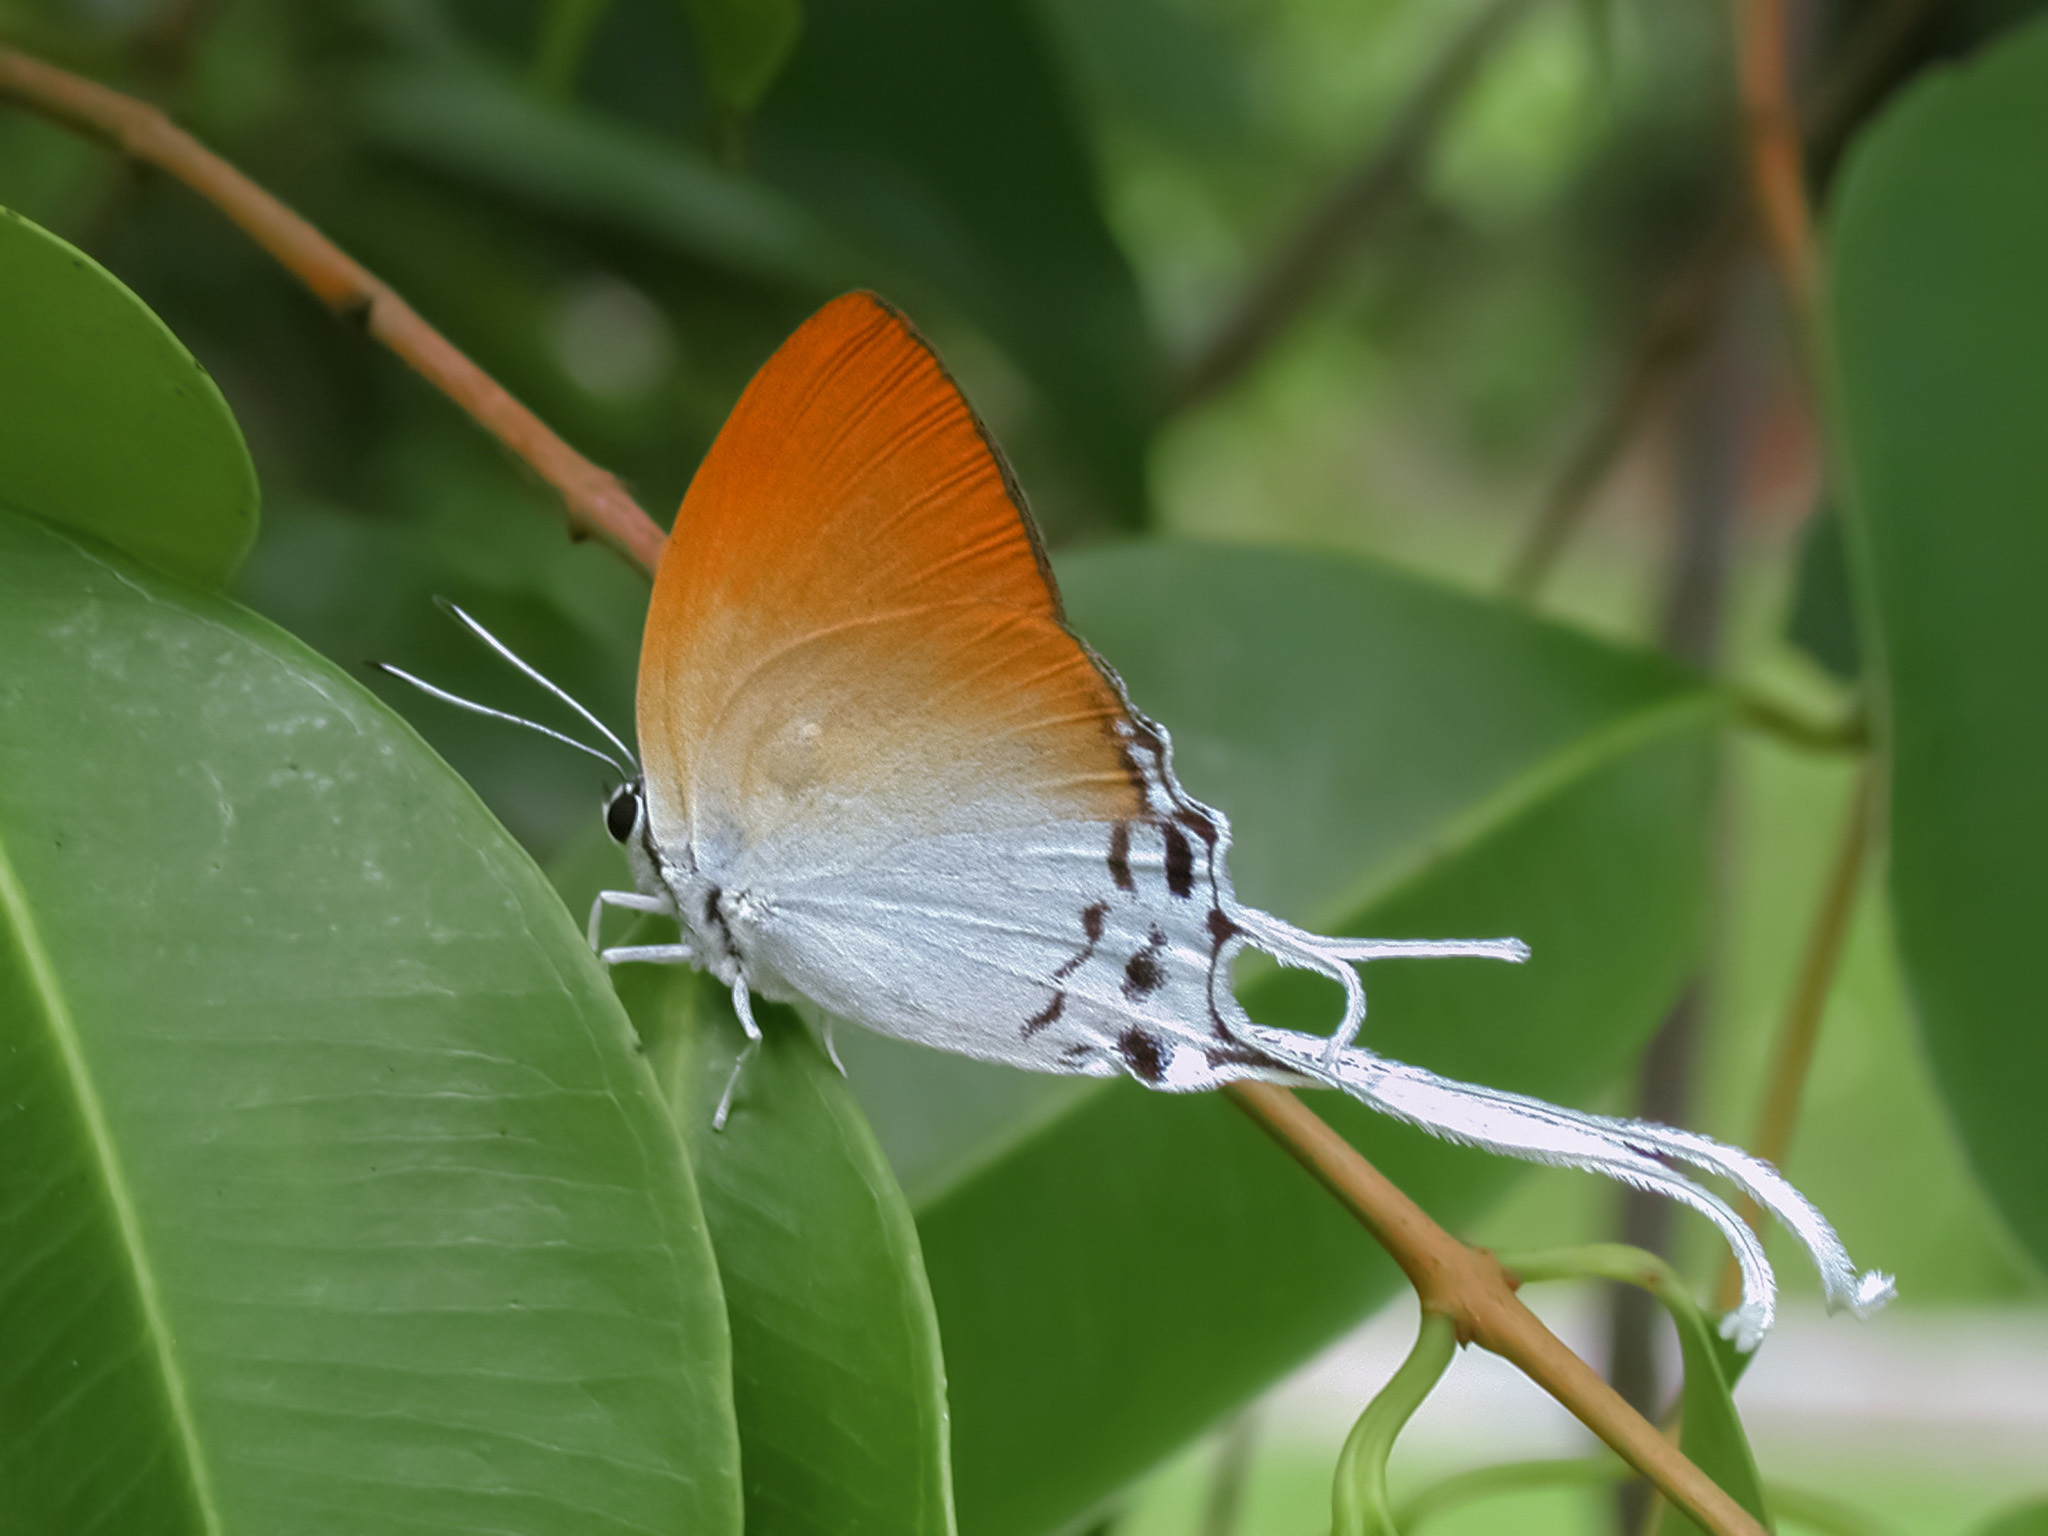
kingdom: Animalia
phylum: Arthropoda
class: Insecta
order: Lepidoptera
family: Lycaenidae
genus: Neocheritra
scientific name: Neocheritra amrita
